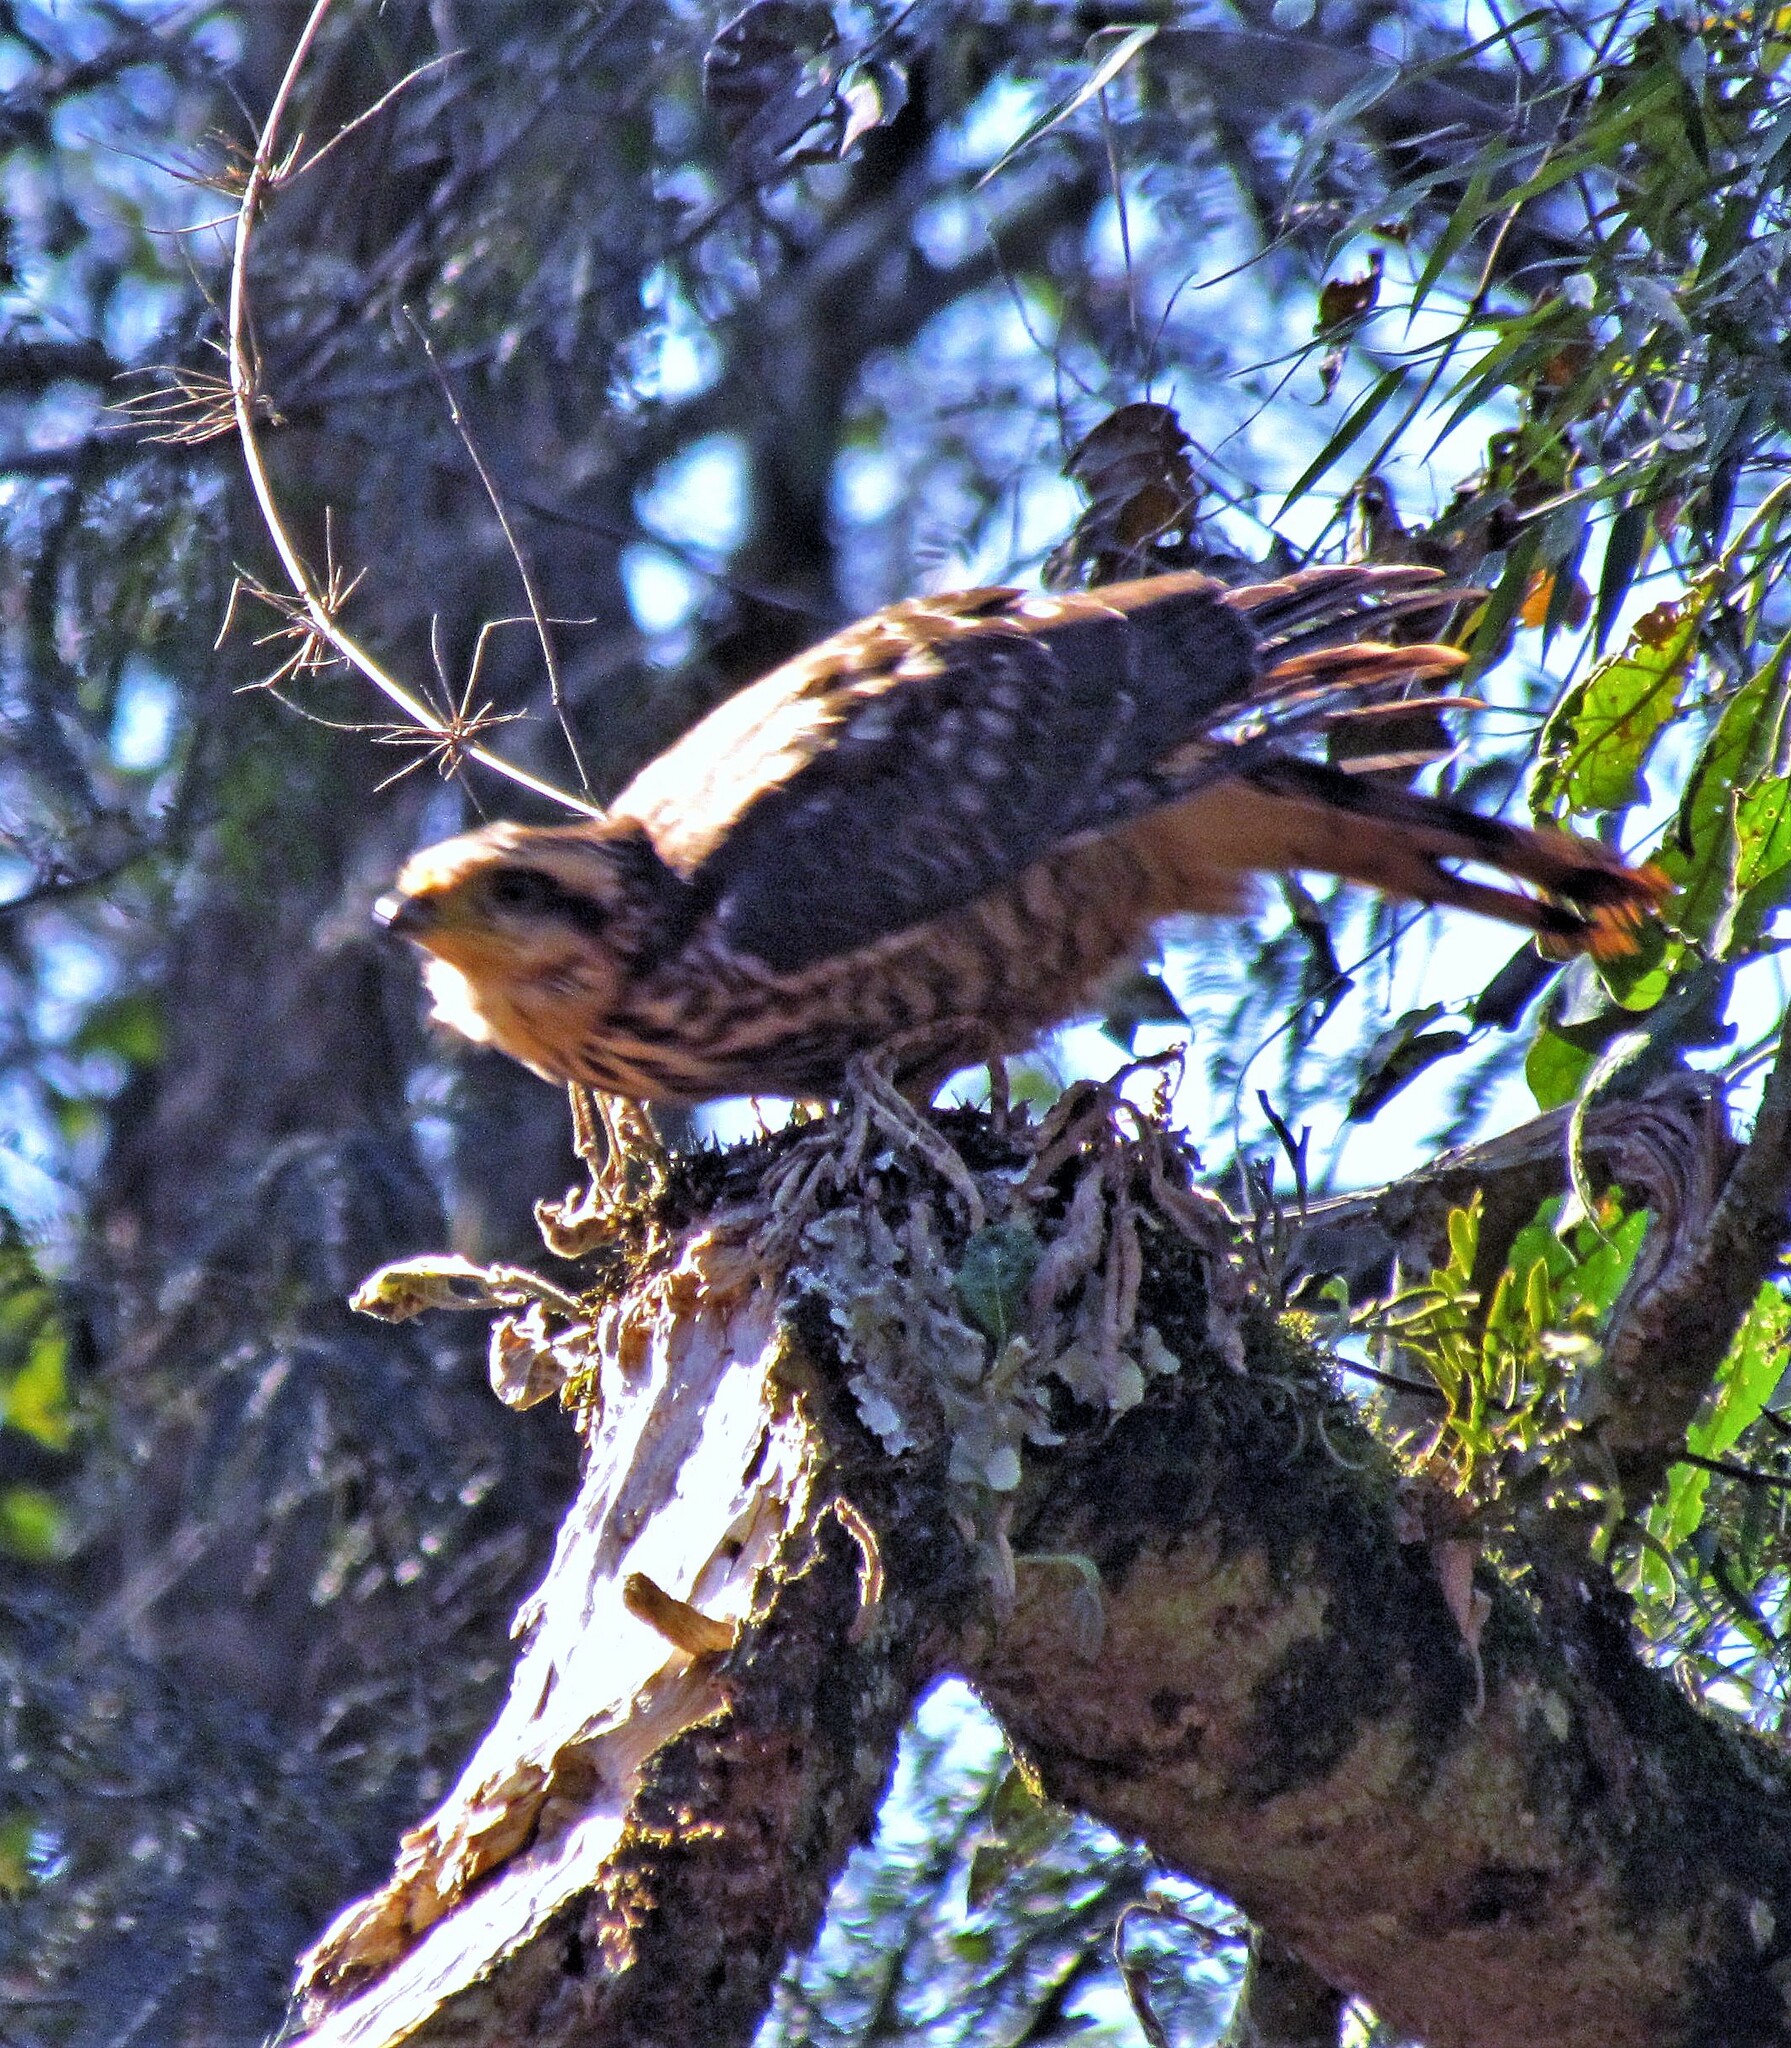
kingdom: Animalia
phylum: Chordata
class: Aves
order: Falconiformes
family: Falconidae
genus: Daptrius
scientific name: Daptrius
